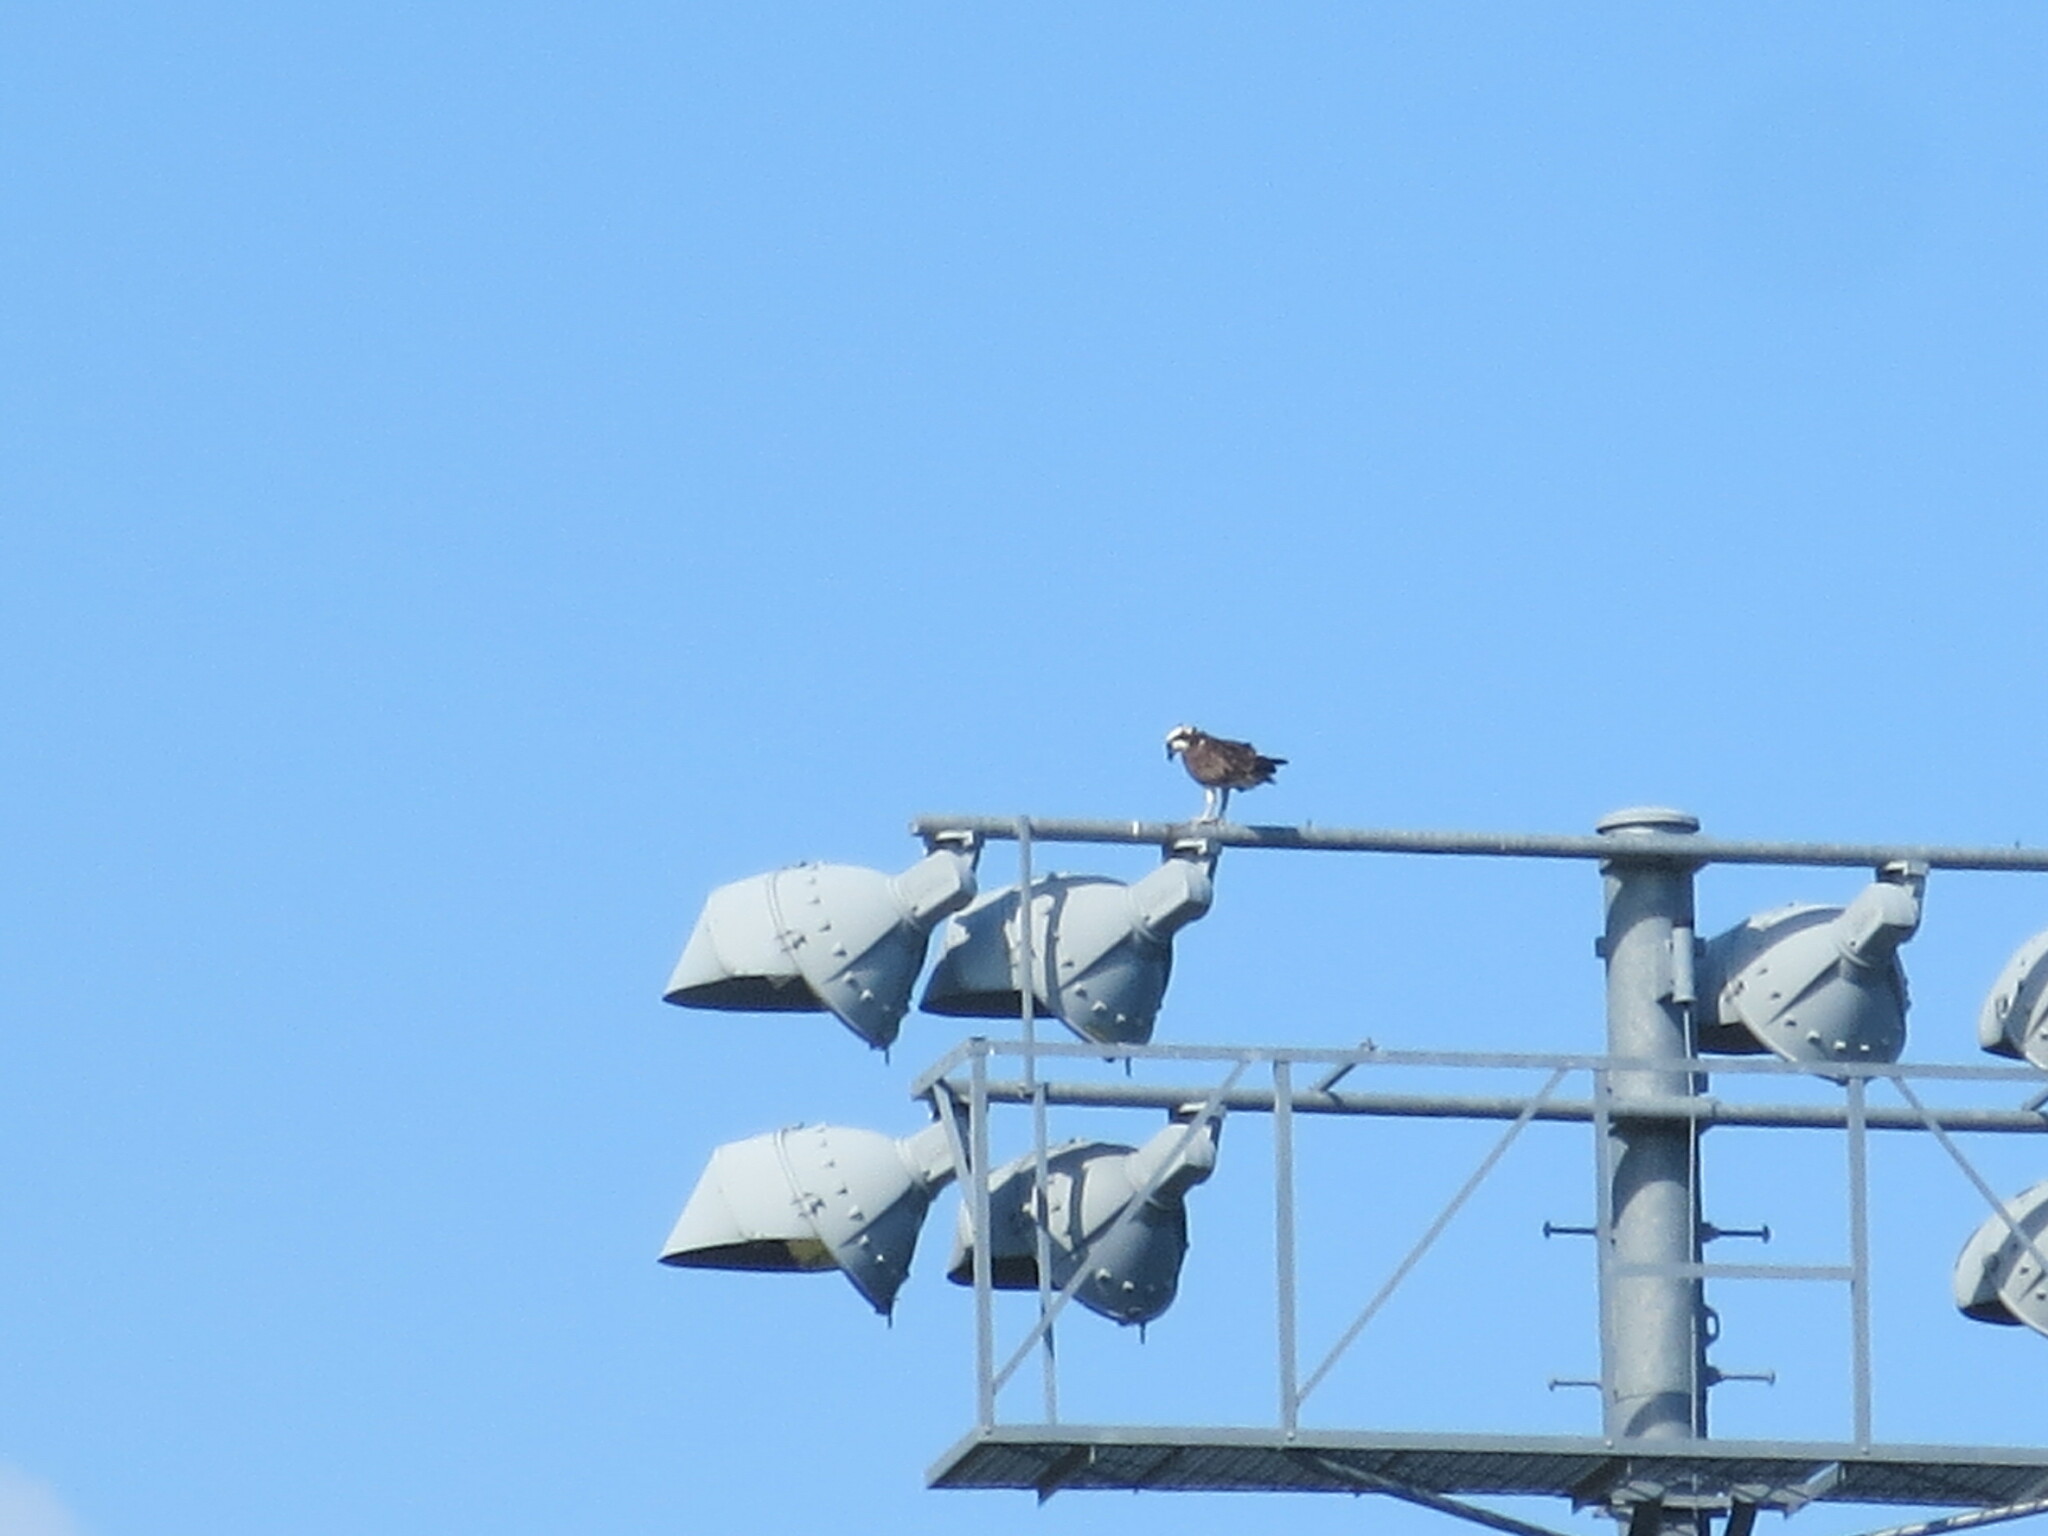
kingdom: Animalia
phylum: Chordata
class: Aves
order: Accipitriformes
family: Pandionidae
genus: Pandion
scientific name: Pandion haliaetus
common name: Osprey
